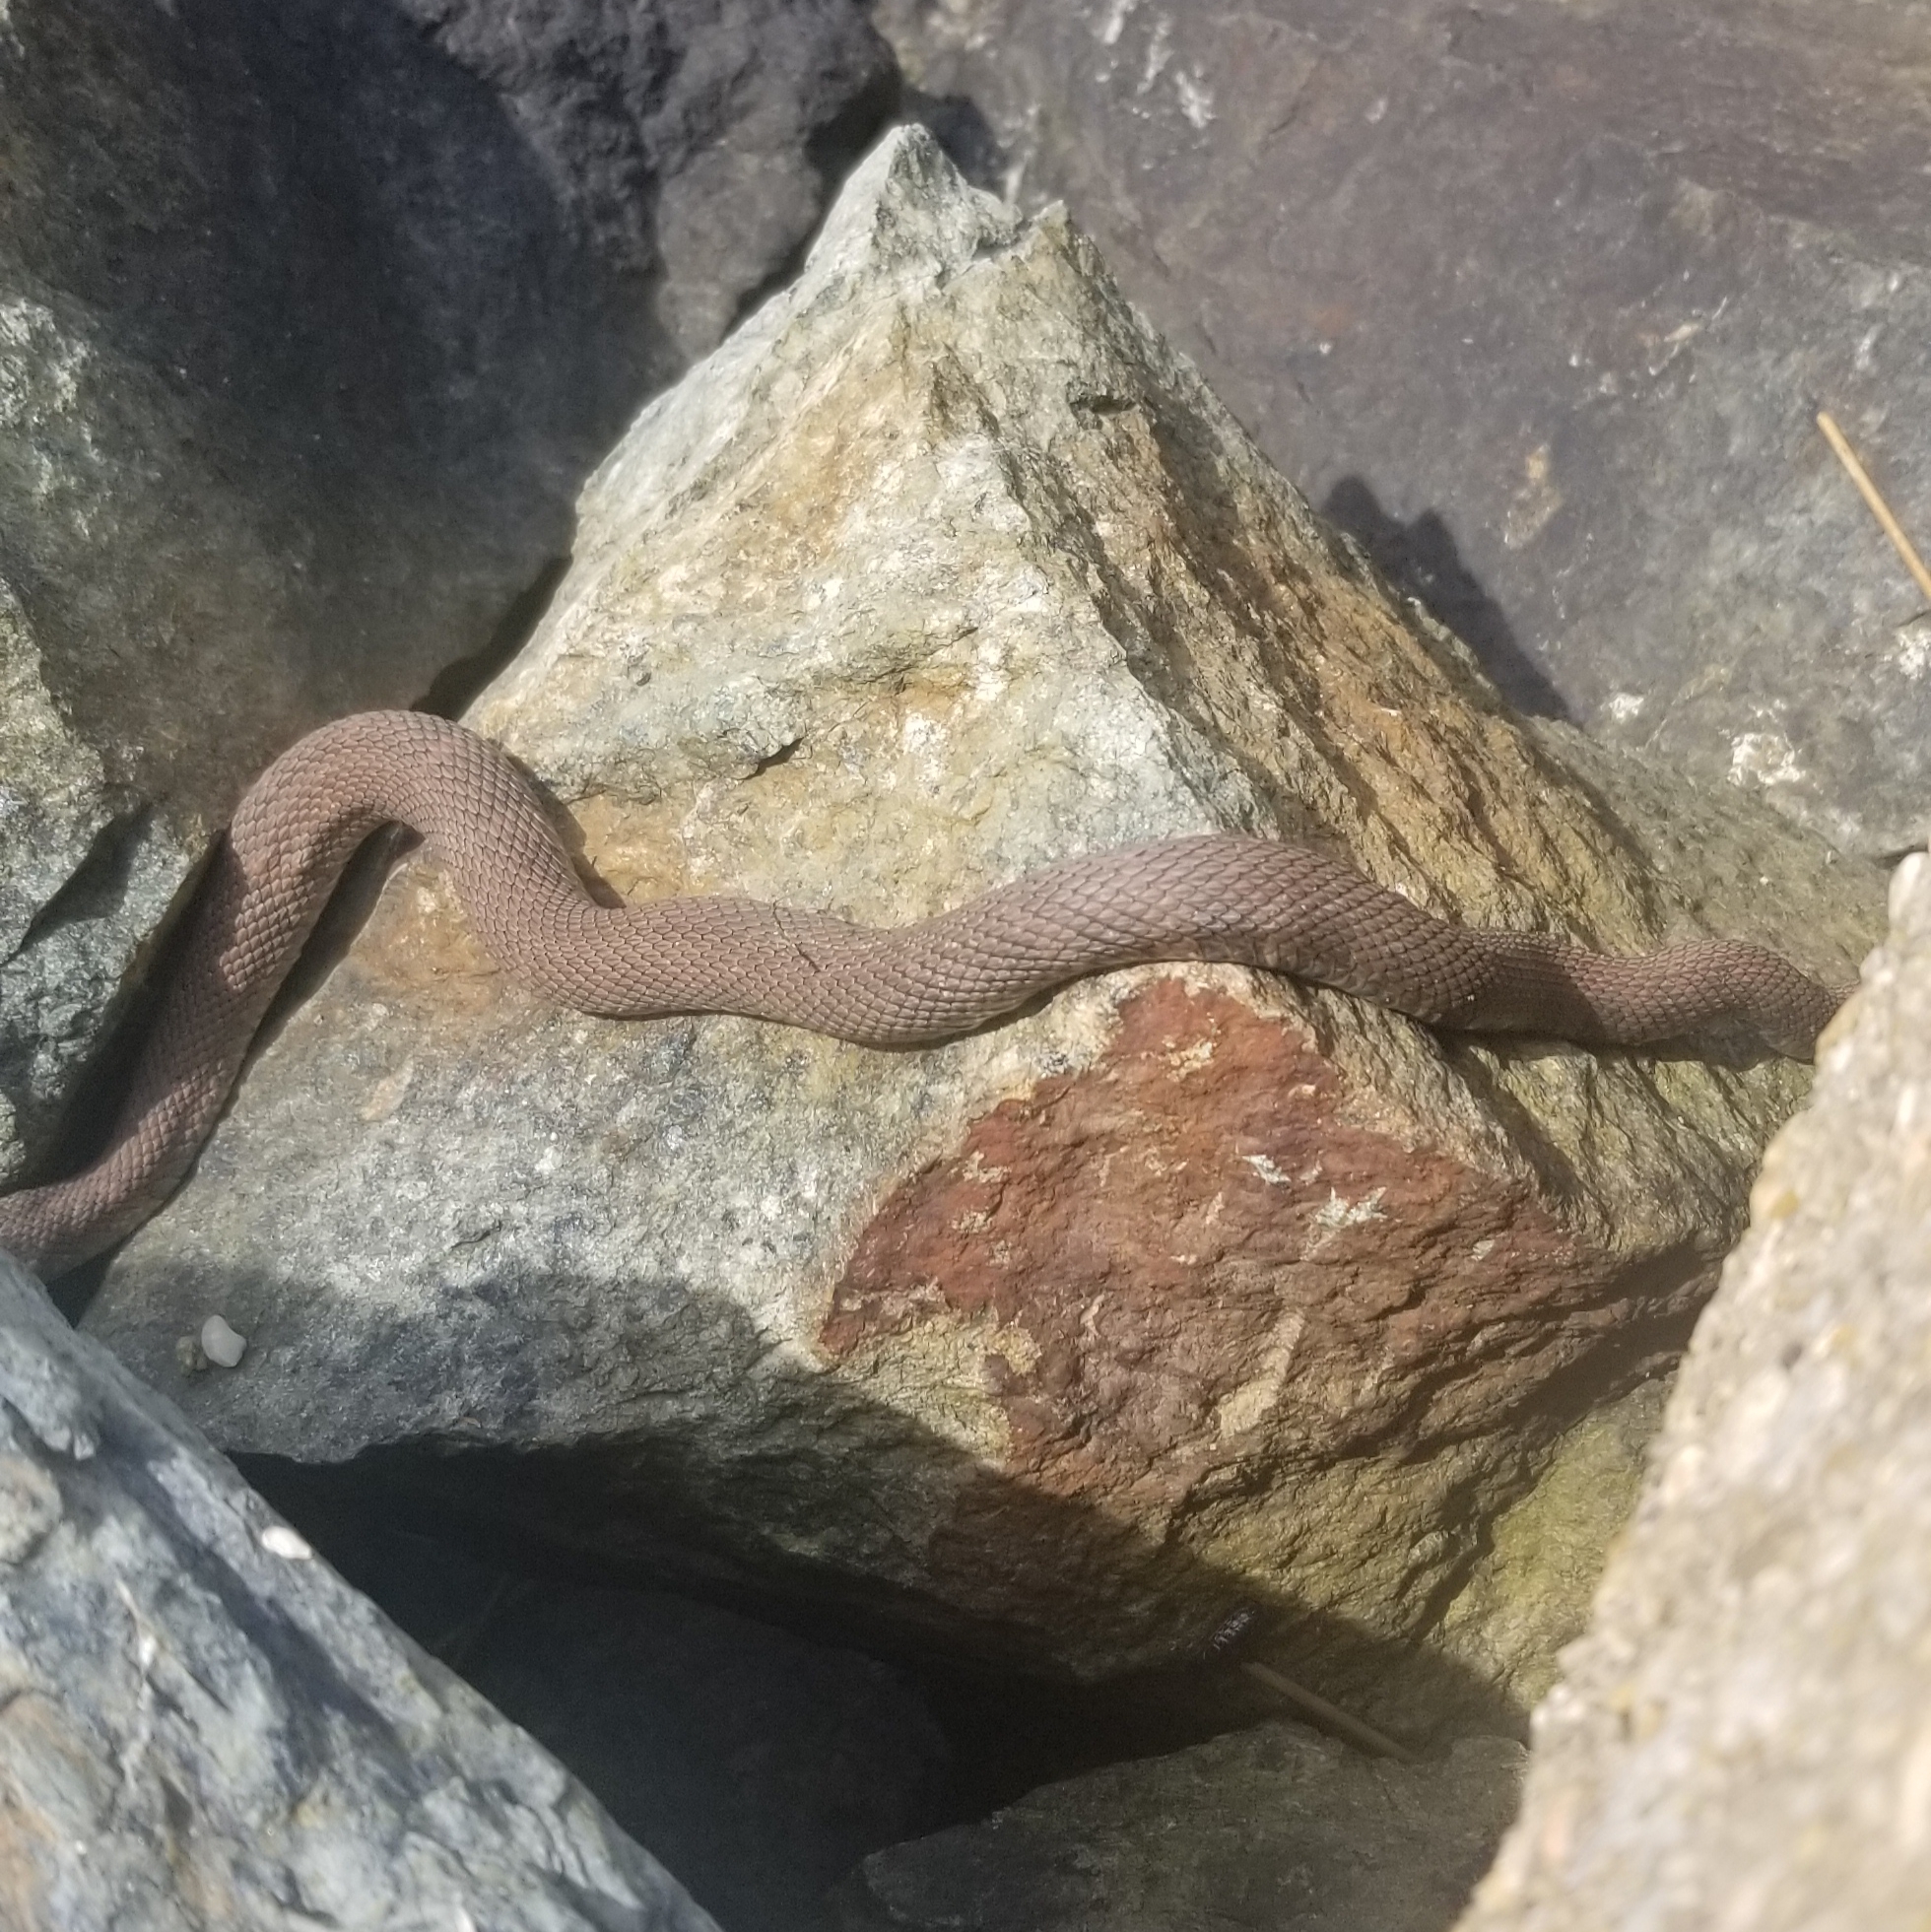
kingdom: Animalia
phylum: Chordata
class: Squamata
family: Colubridae
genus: Nerodia
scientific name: Nerodia sipedon
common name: Northern water snake
